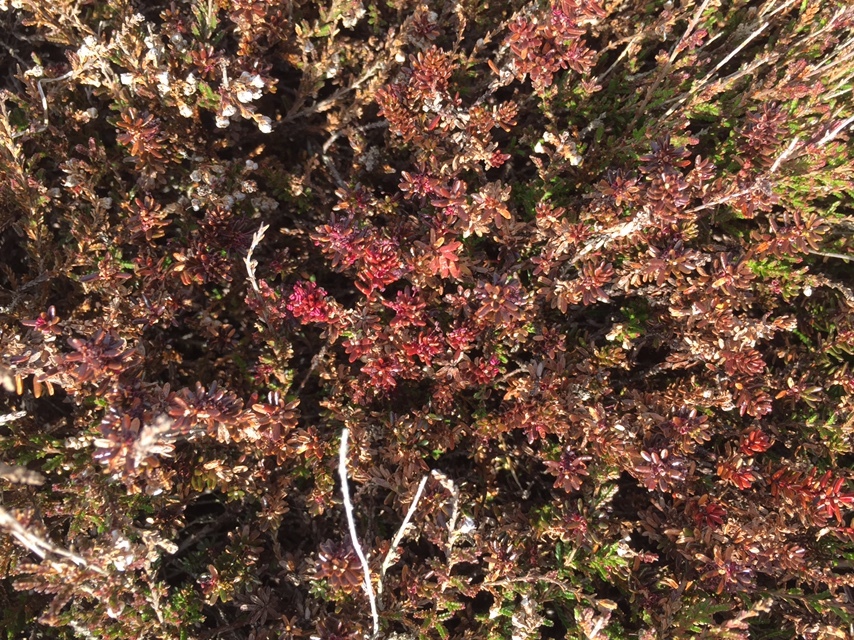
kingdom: Plantae
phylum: Tracheophyta
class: Magnoliopsida
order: Ericales
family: Ericaceae
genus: Empetrum
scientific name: Empetrum nigrum
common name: Black crowberry
